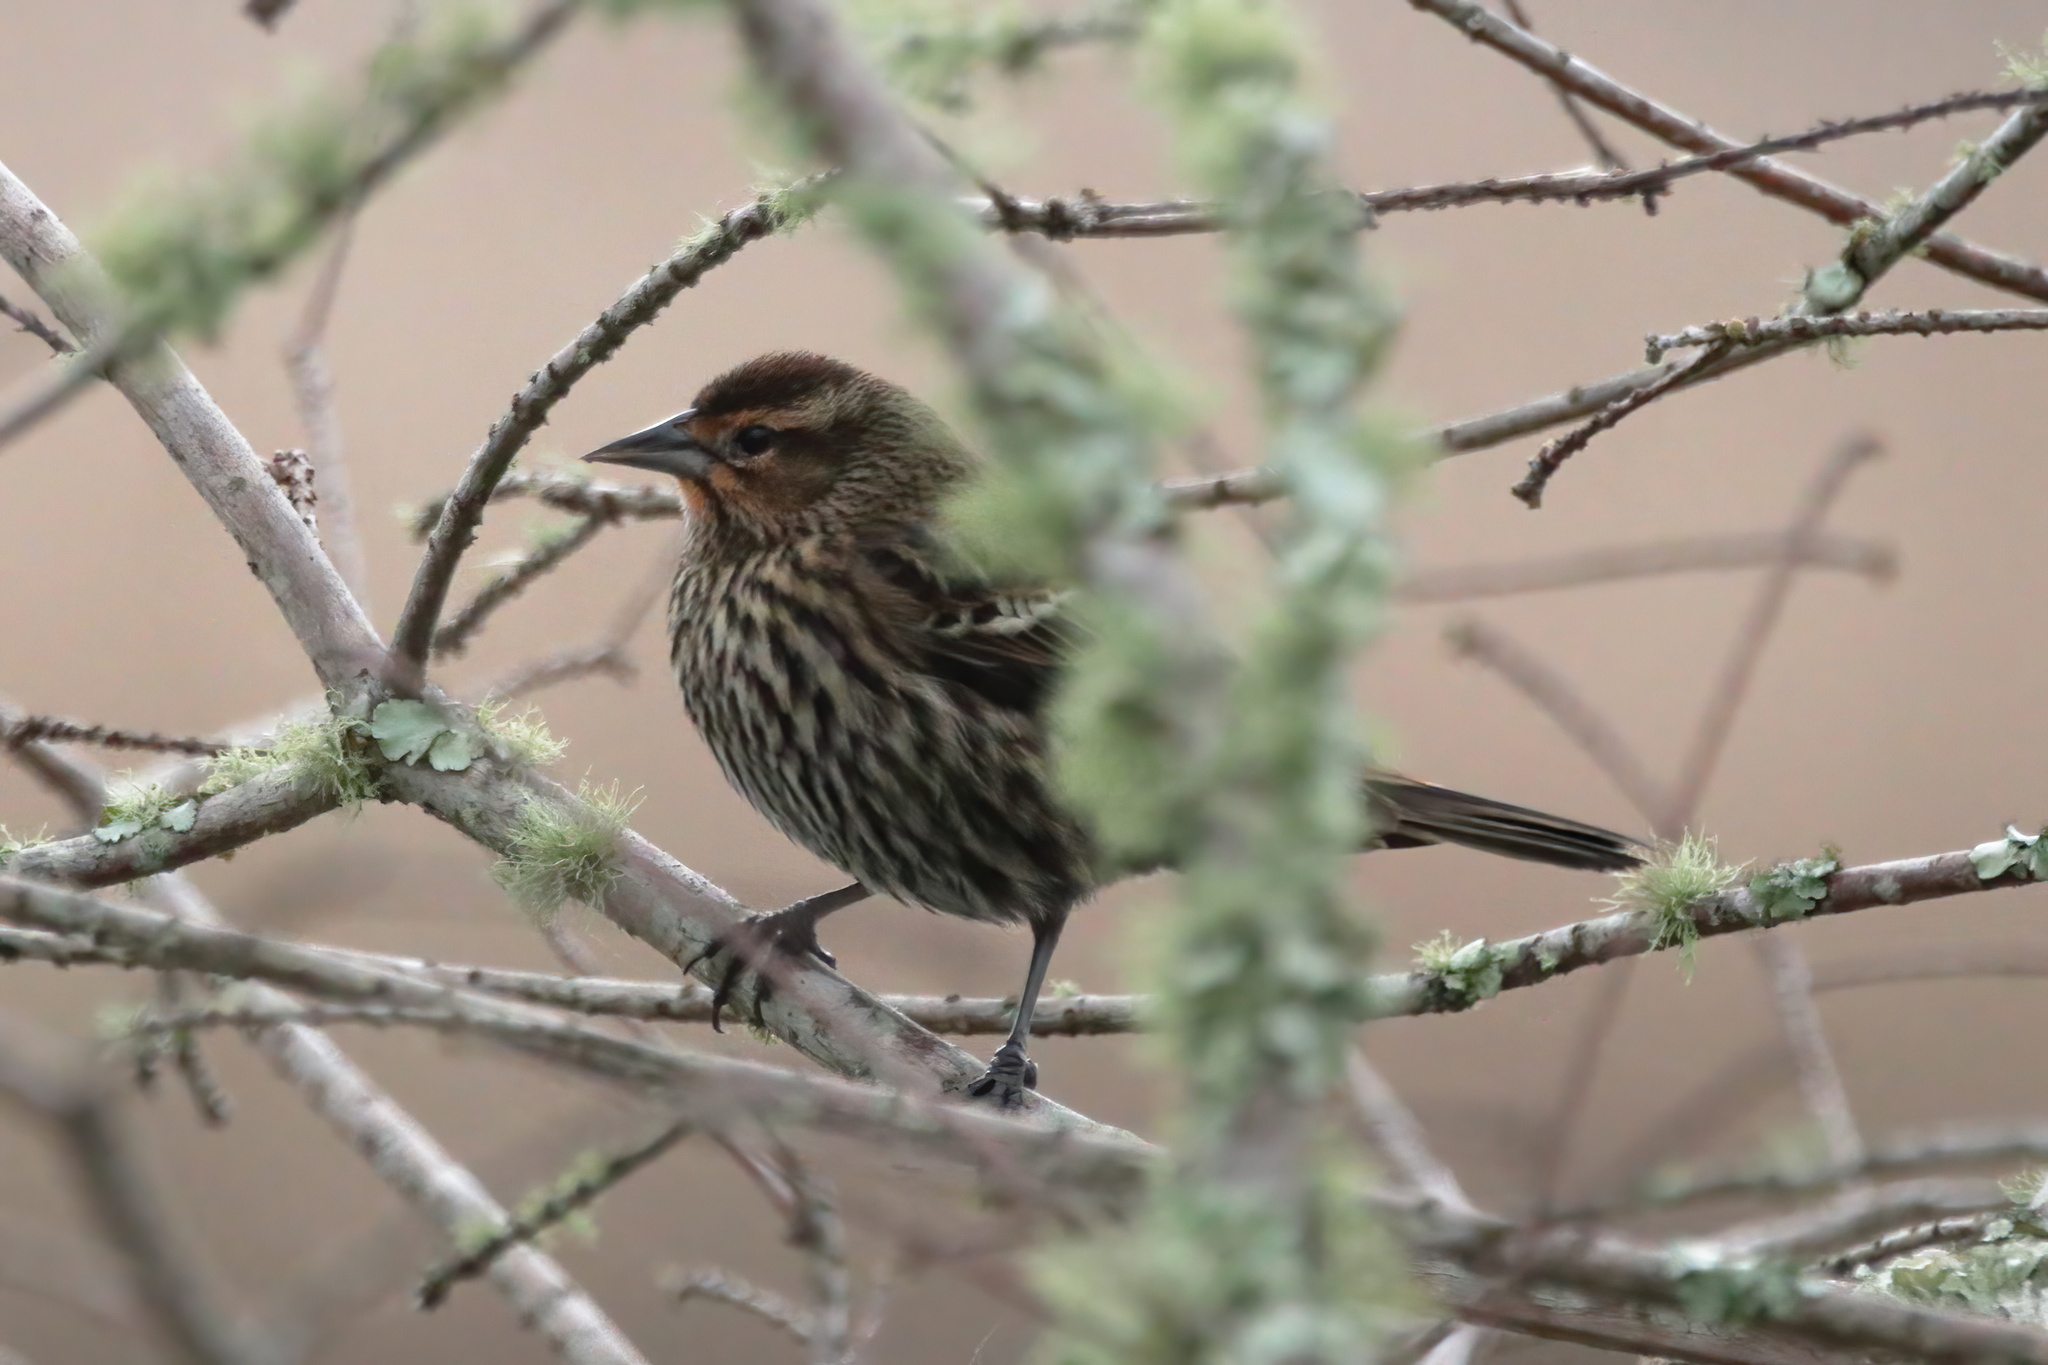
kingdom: Animalia
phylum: Chordata
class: Aves
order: Passeriformes
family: Icteridae
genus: Agelaius
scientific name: Agelaius phoeniceus
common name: Red-winged blackbird
